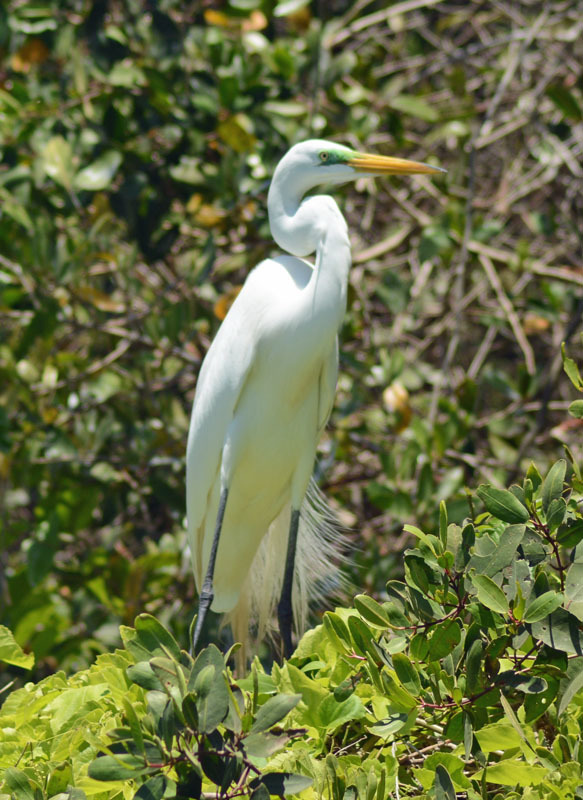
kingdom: Animalia
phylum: Chordata
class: Aves
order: Pelecaniformes
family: Ardeidae
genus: Ardea
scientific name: Ardea alba
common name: Great egret
